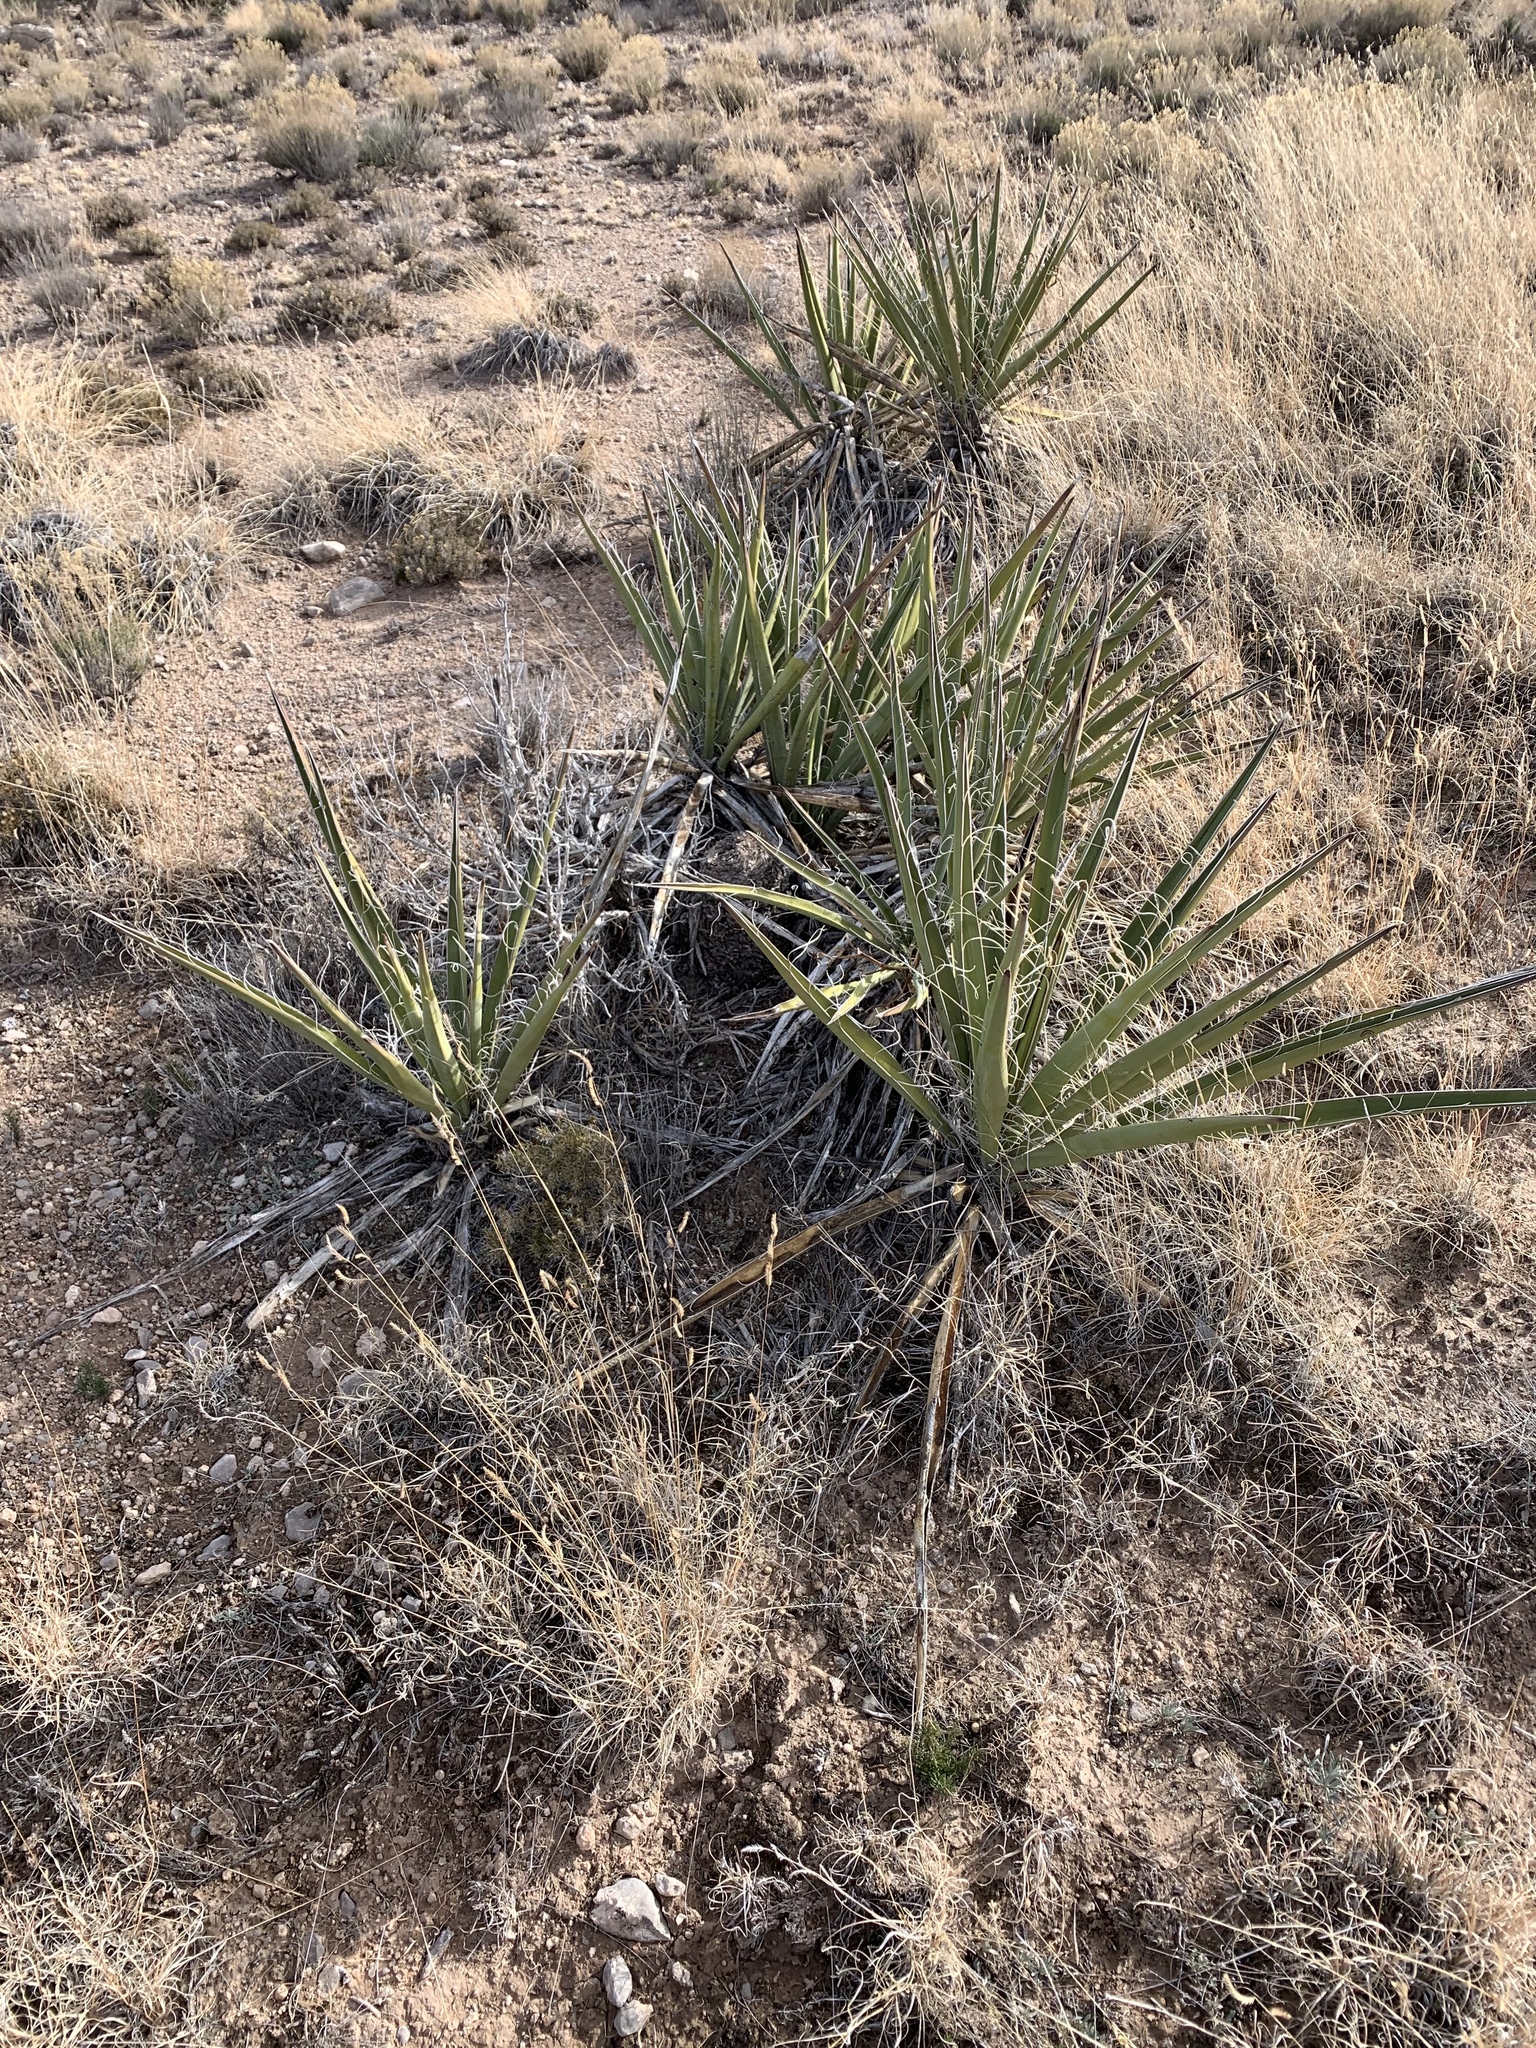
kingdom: Plantae
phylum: Tracheophyta
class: Liliopsida
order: Asparagales
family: Asparagaceae
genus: Yucca
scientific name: Yucca baccata
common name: Banana yucca
